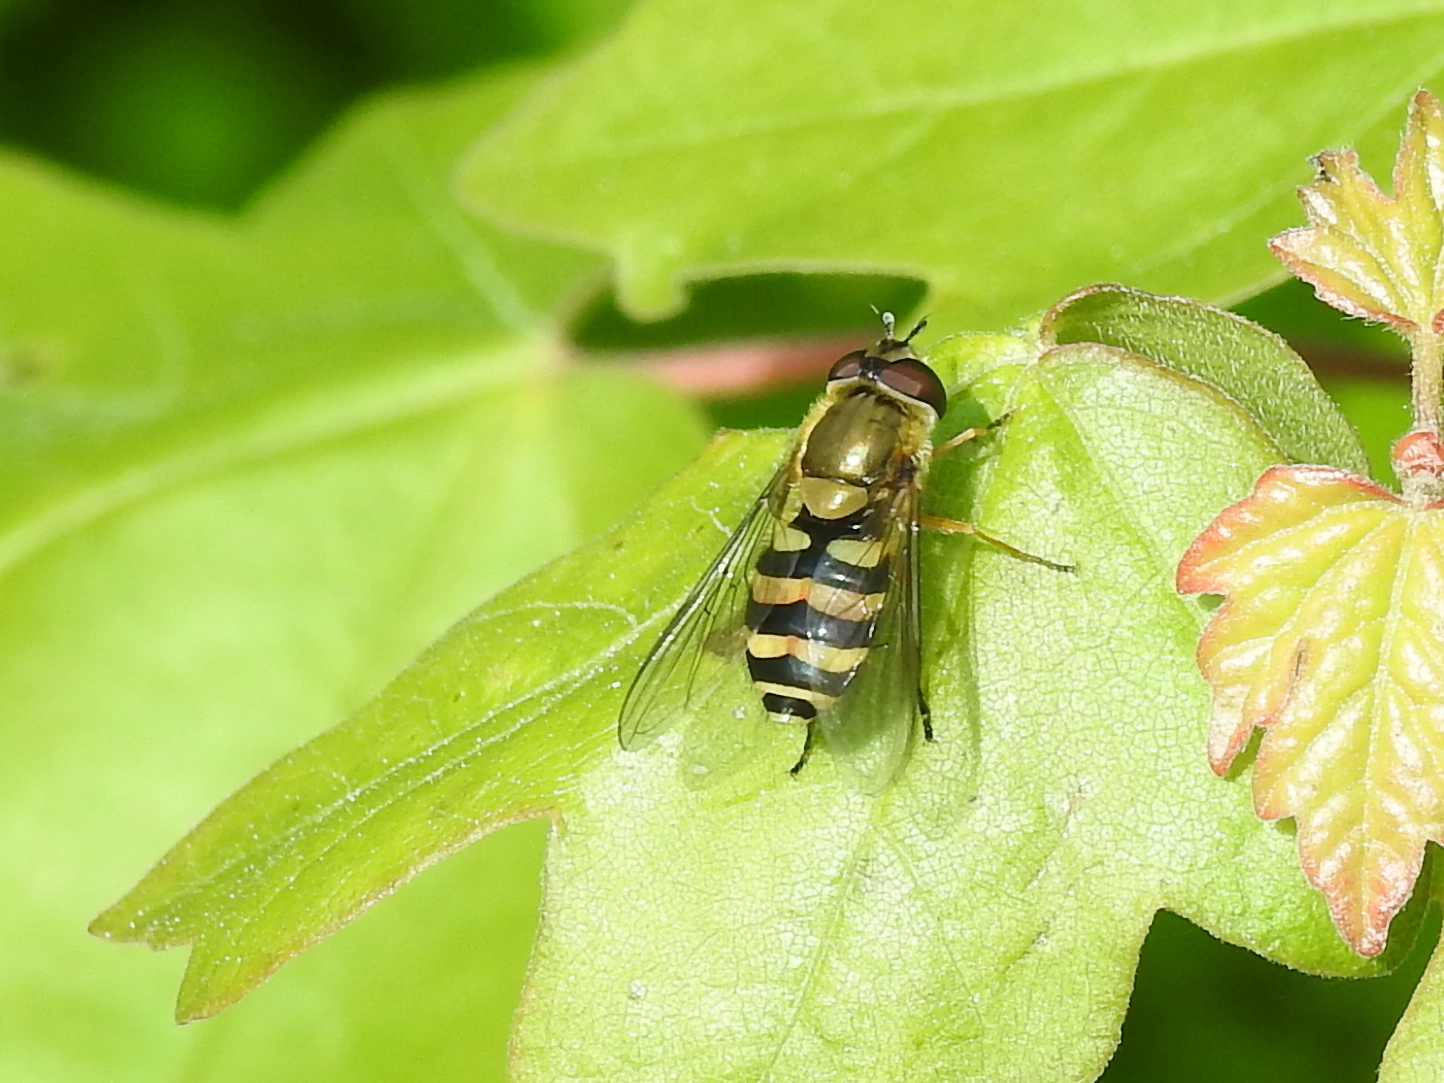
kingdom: Animalia
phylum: Arthropoda
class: Insecta
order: Diptera
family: Syrphidae
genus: Syrphus
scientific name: Syrphus
